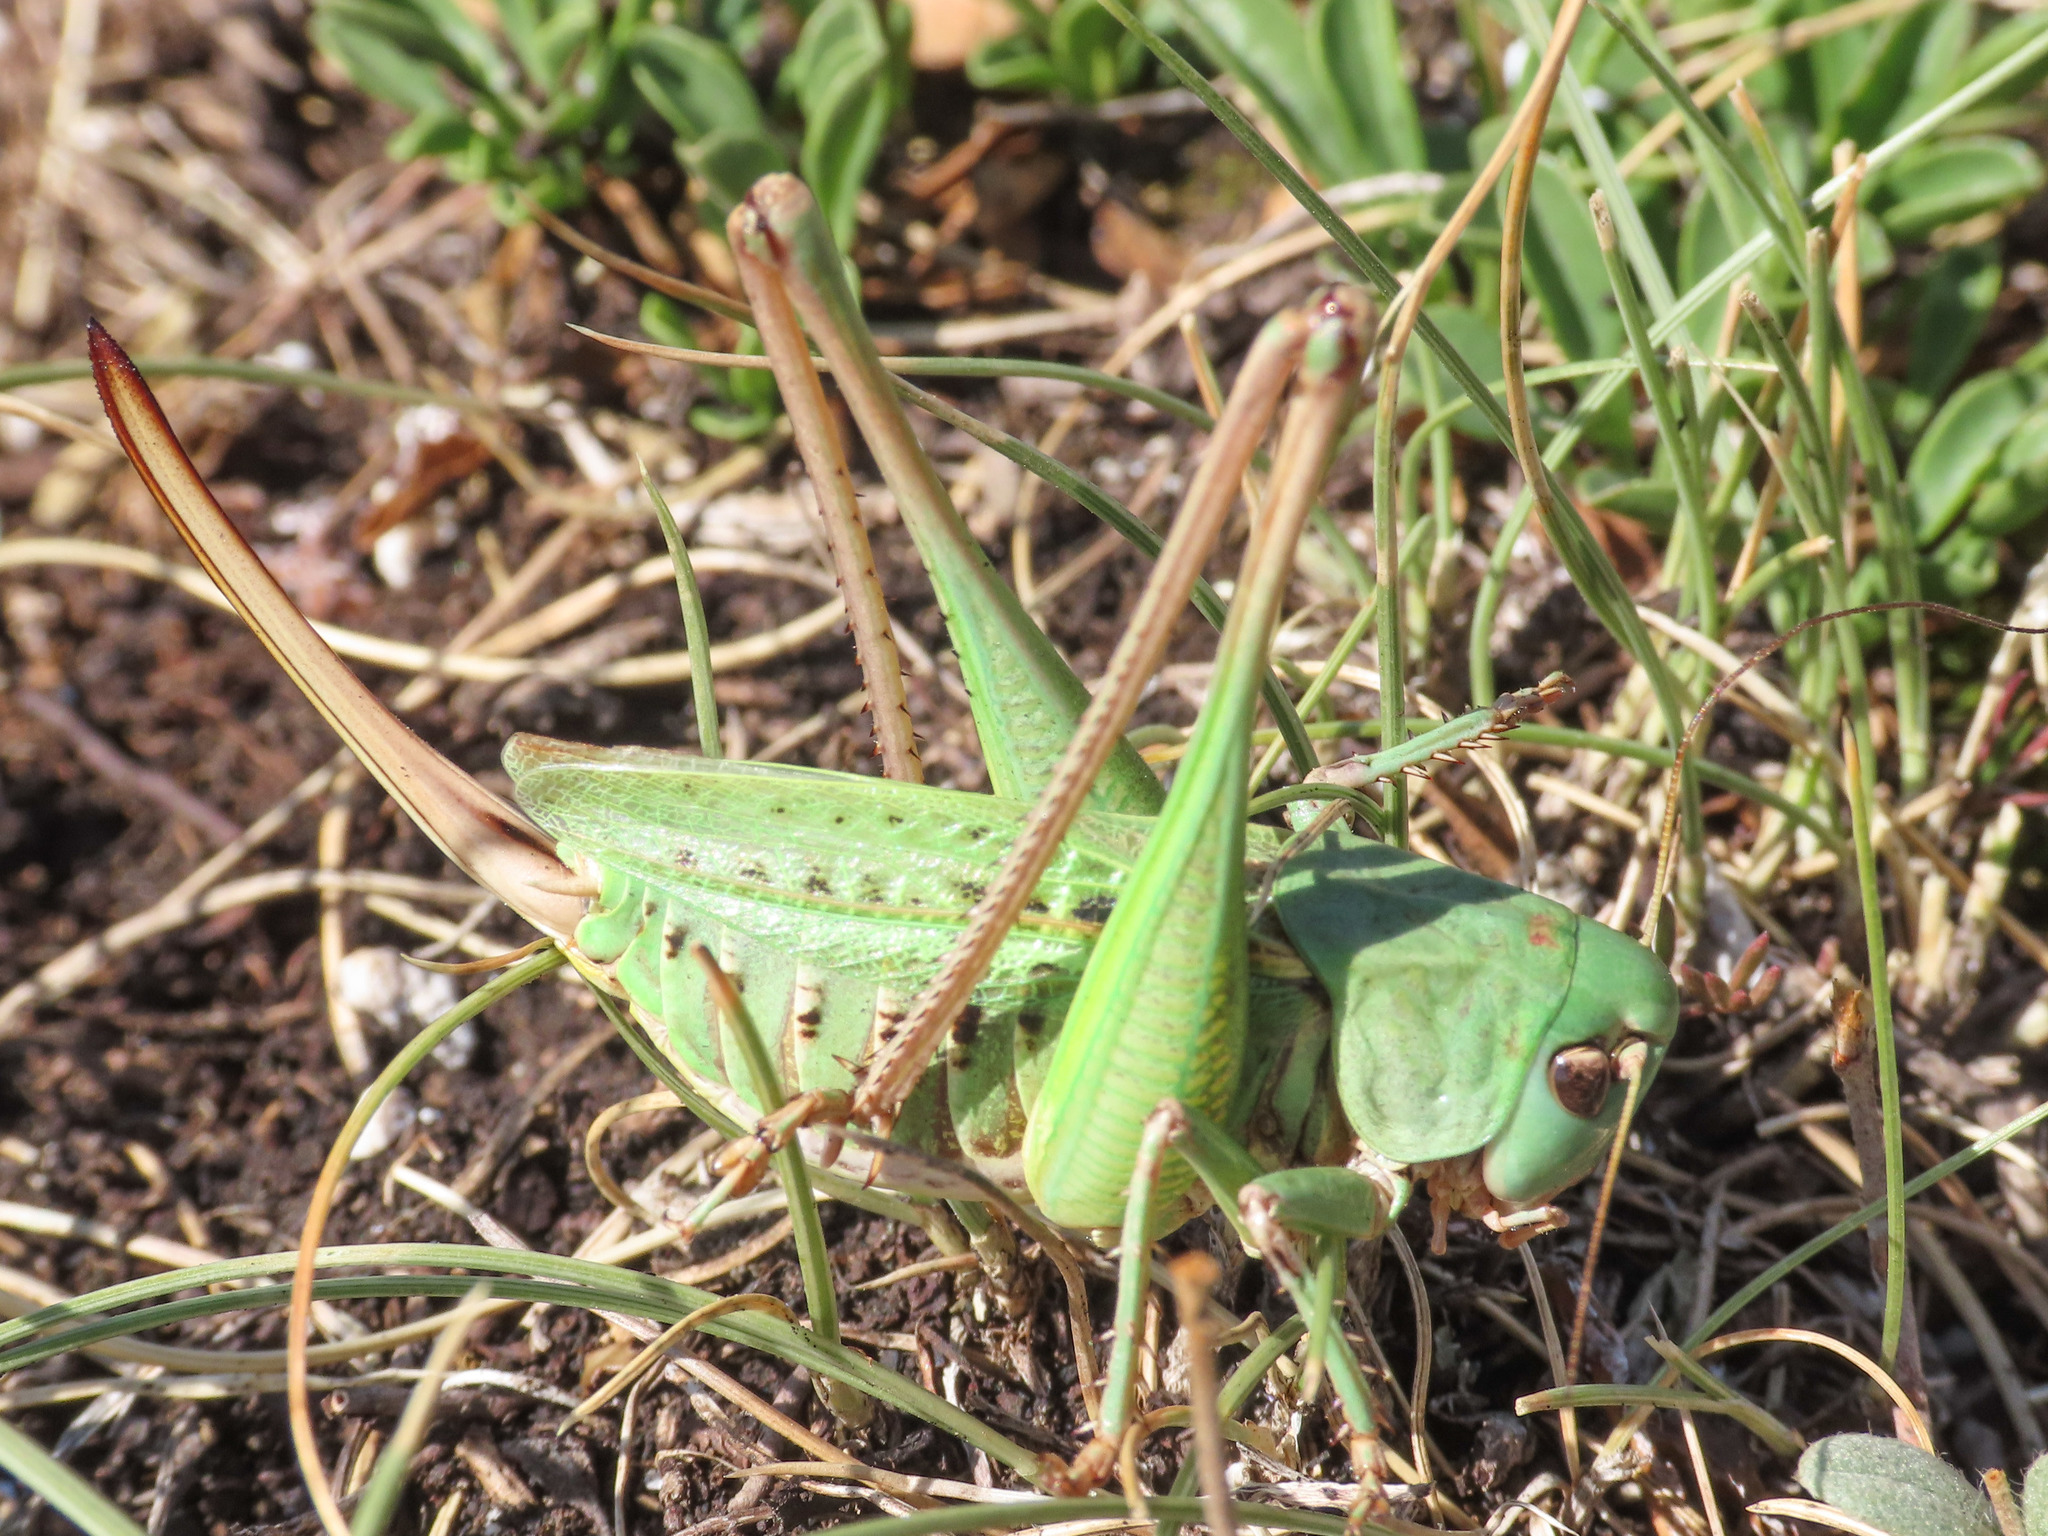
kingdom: Animalia
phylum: Arthropoda
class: Insecta
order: Orthoptera
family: Tettigoniidae
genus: Decticus
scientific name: Decticus verrucivorus
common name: Wart-biter
